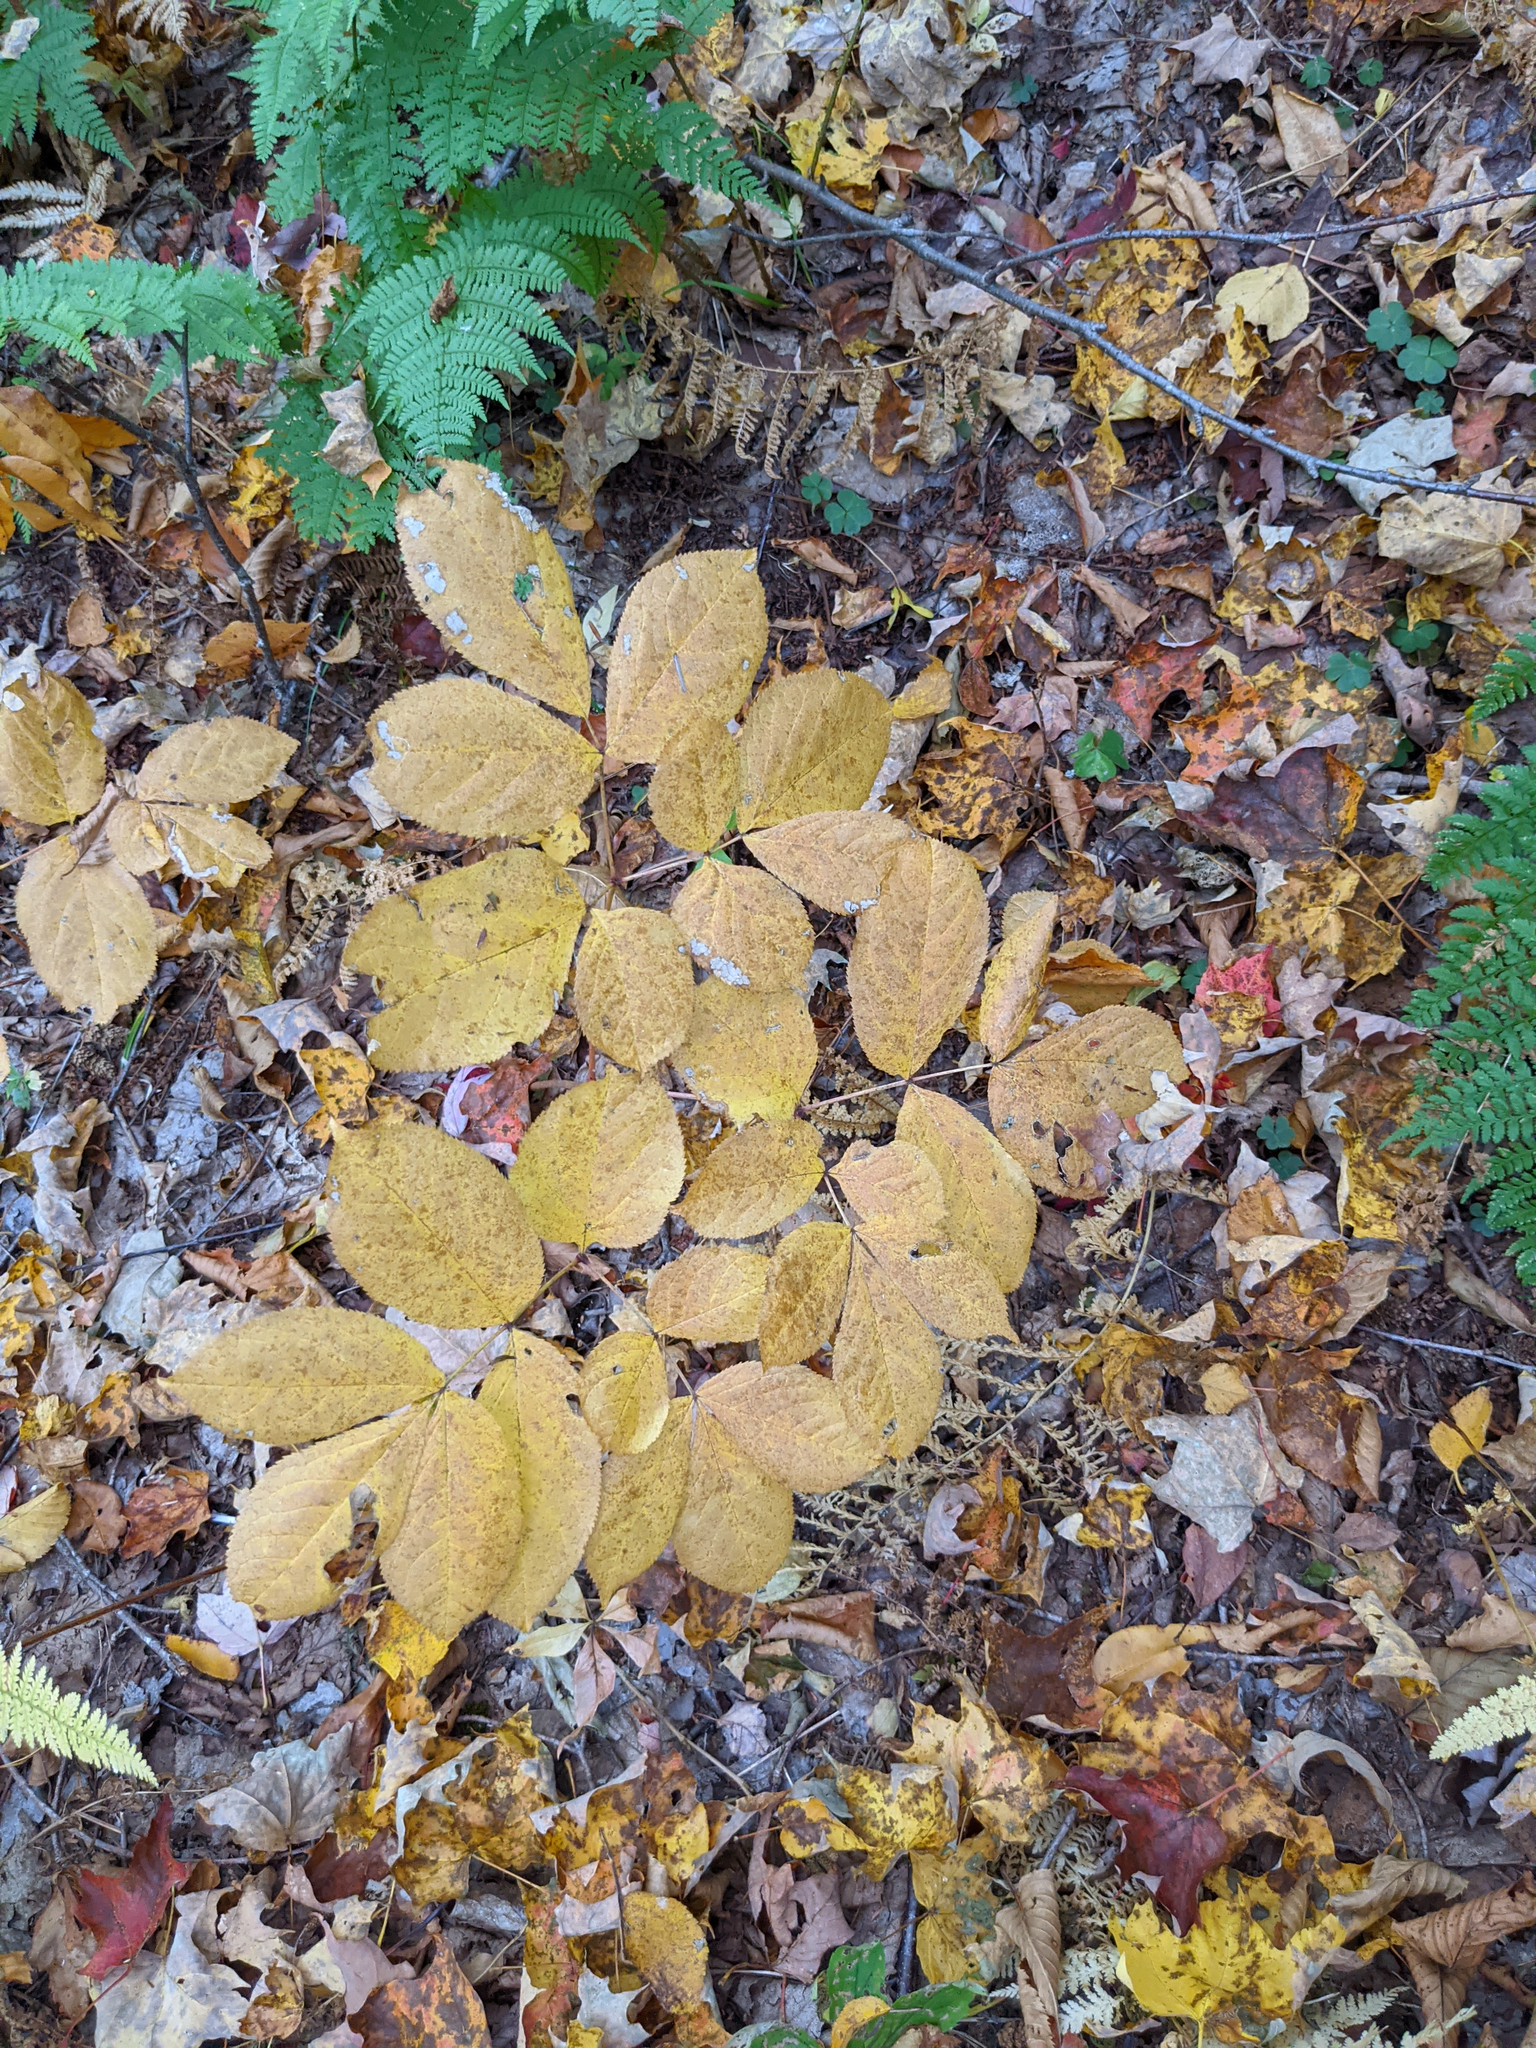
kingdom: Plantae
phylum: Tracheophyta
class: Magnoliopsida
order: Apiales
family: Araliaceae
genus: Aralia
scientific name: Aralia nudicaulis
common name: Wild sarsaparilla
